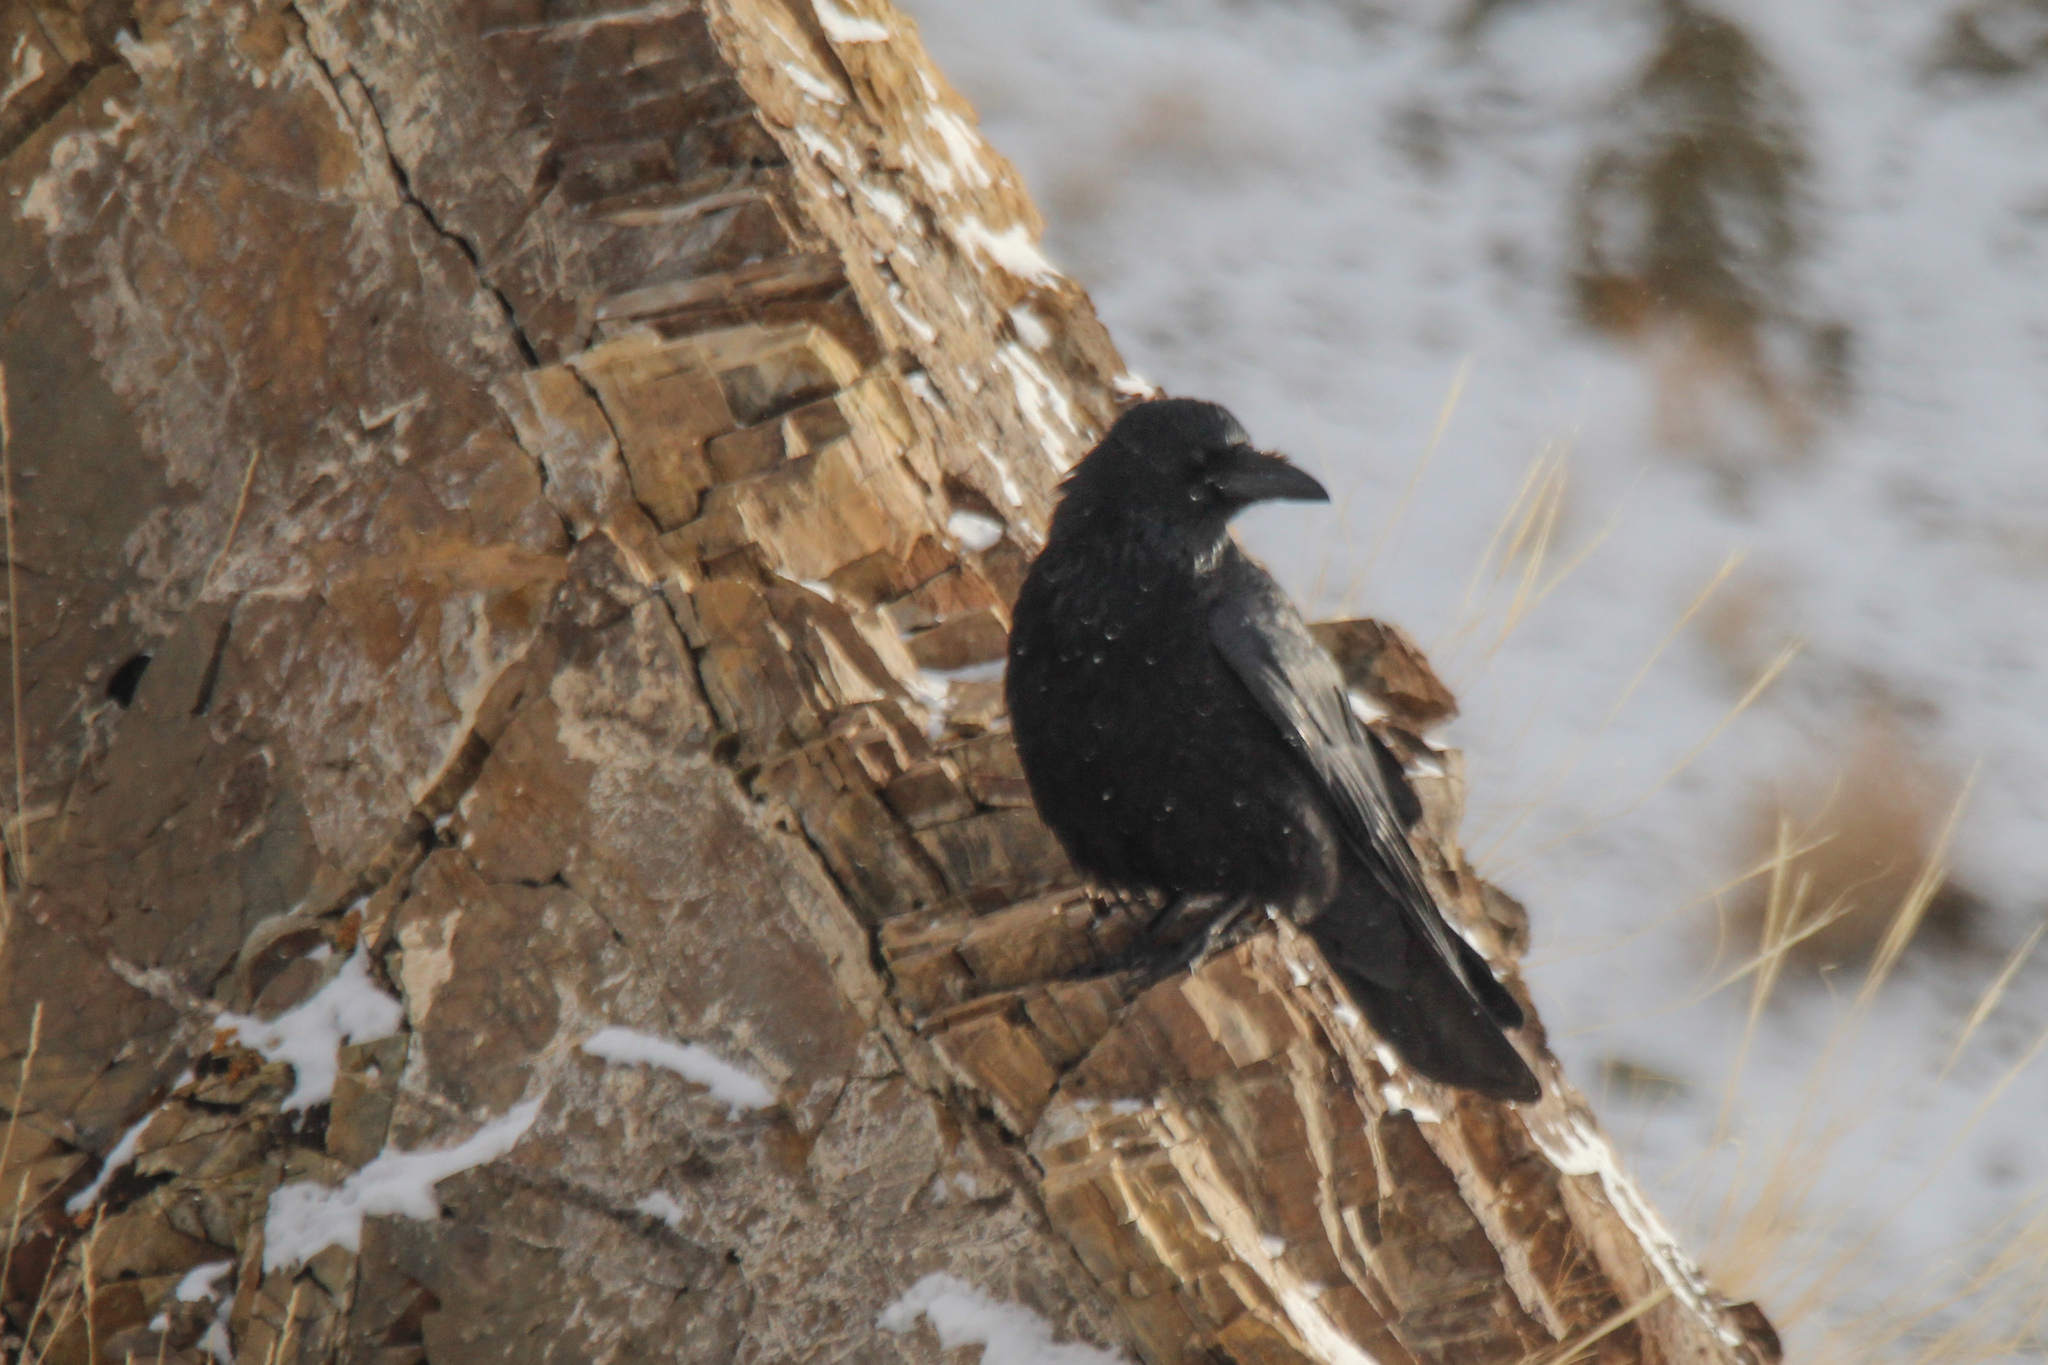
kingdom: Animalia
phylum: Chordata
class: Aves
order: Passeriformes
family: Corvidae
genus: Corvus
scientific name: Corvus corone
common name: Carrion crow
